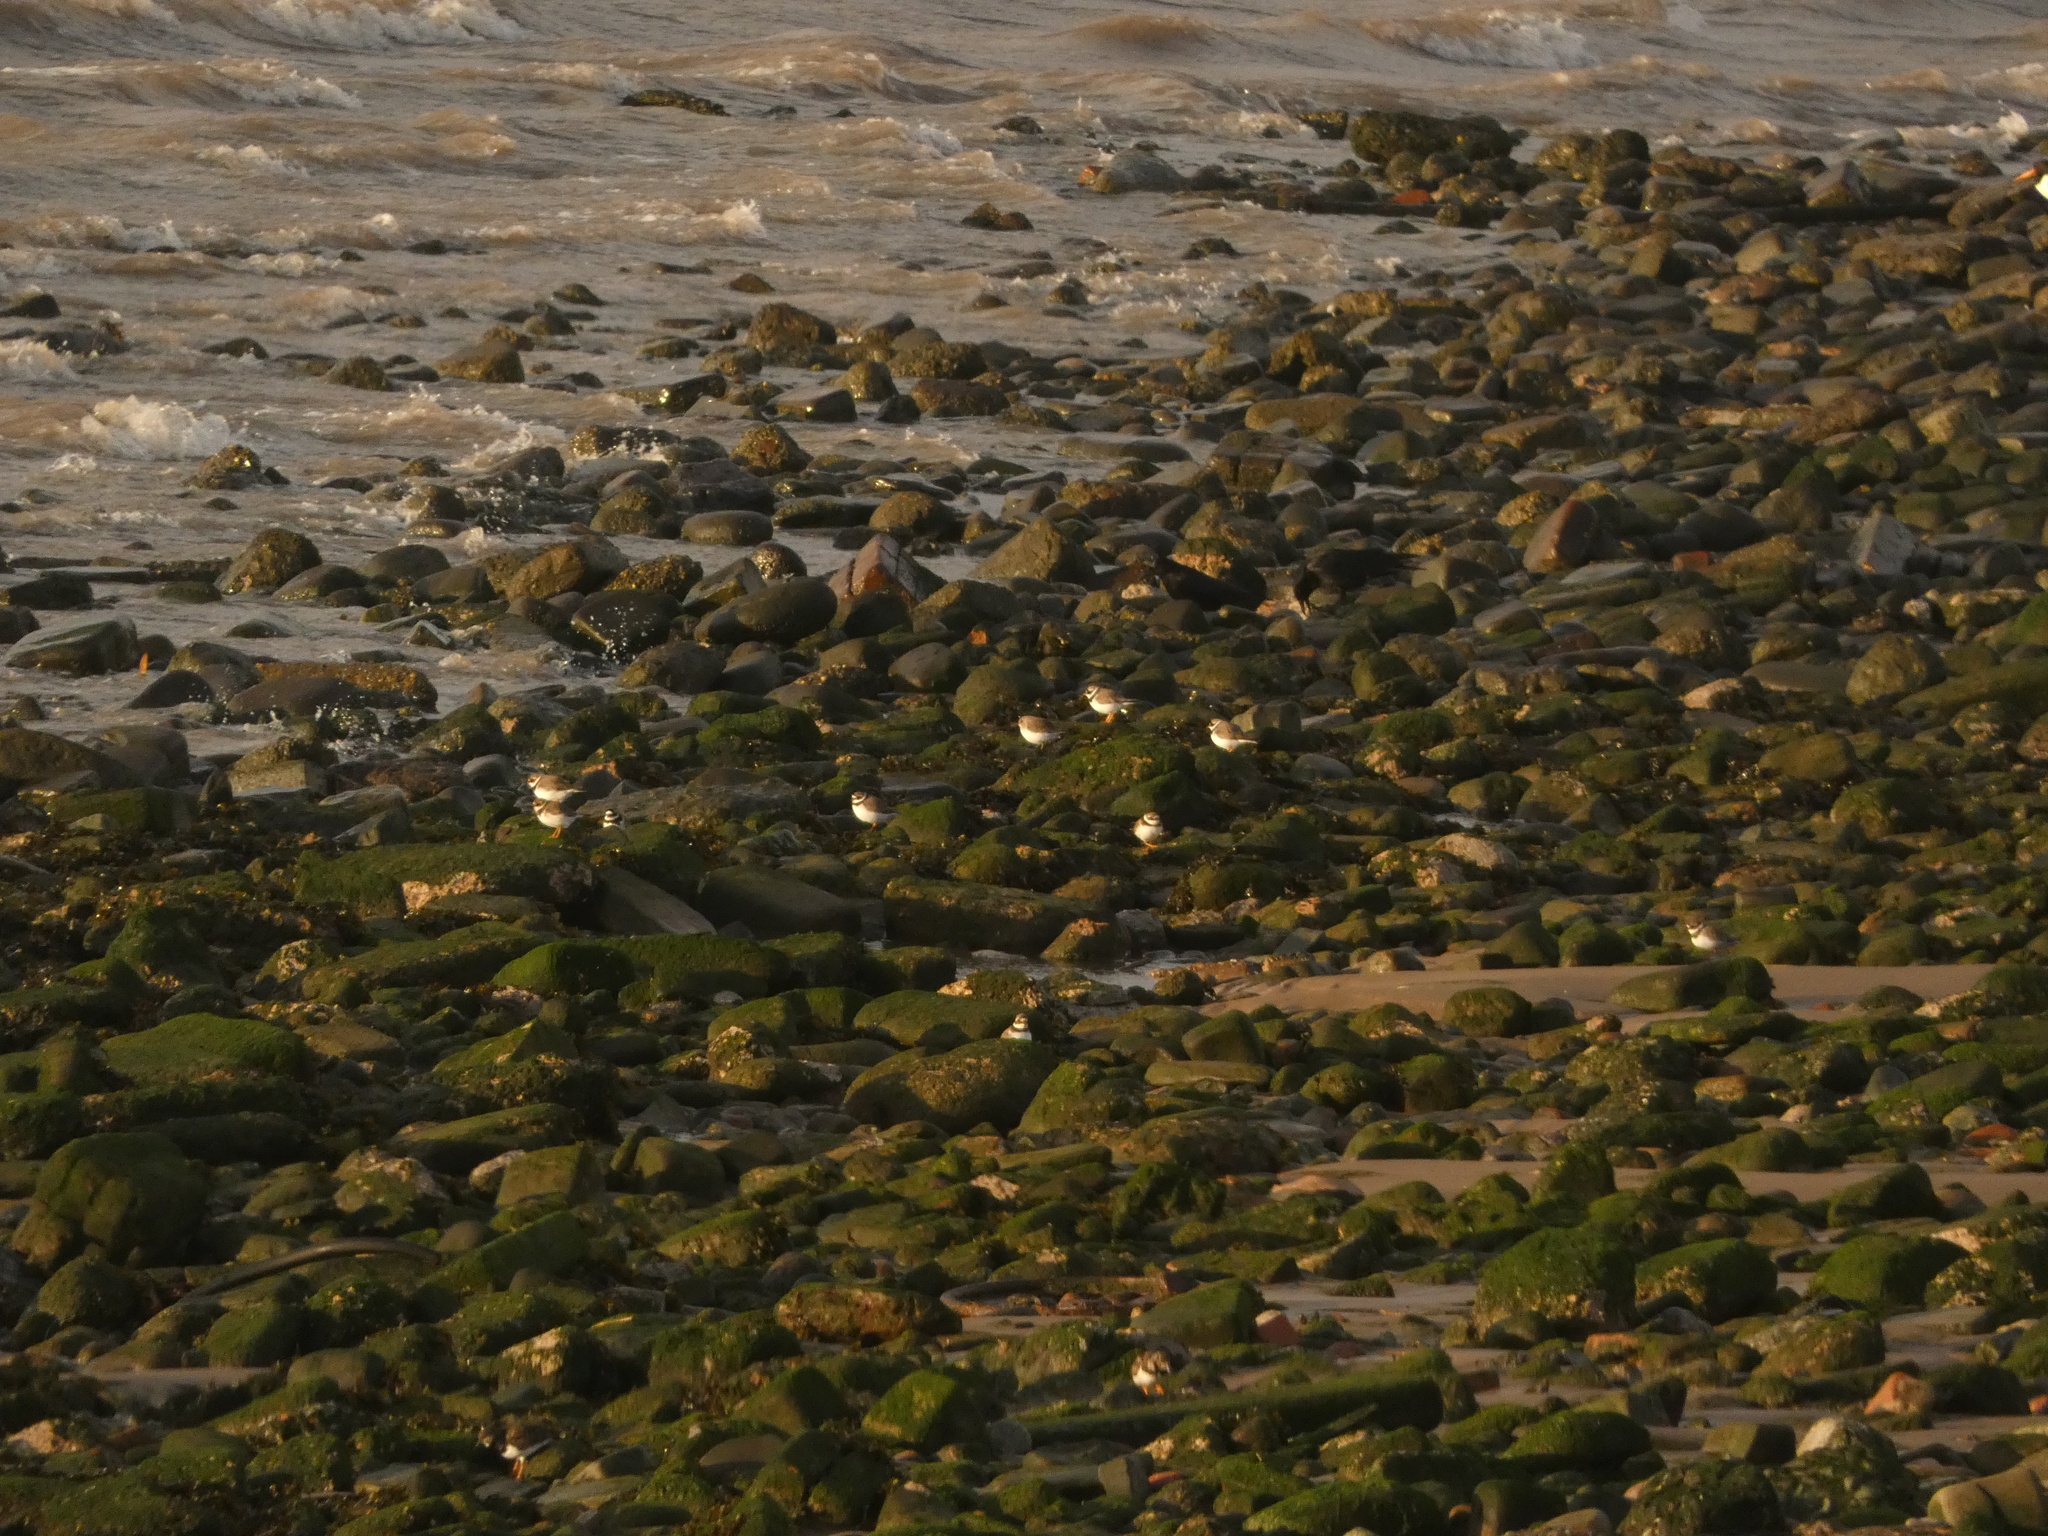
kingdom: Animalia
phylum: Chordata
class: Aves
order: Charadriiformes
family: Charadriidae
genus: Charadrius
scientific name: Charadrius hiaticula
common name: Common ringed plover
